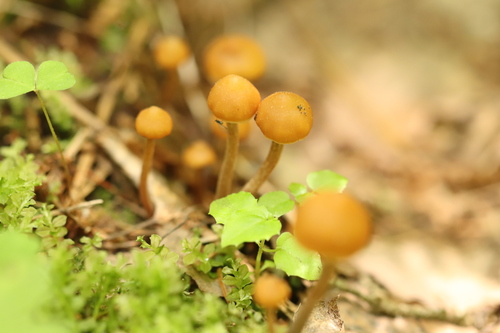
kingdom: Fungi
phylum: Basidiomycota
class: Agaricomycetes
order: Agaricales
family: Strophariaceae
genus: Pholiota
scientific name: Pholiota lignicola
